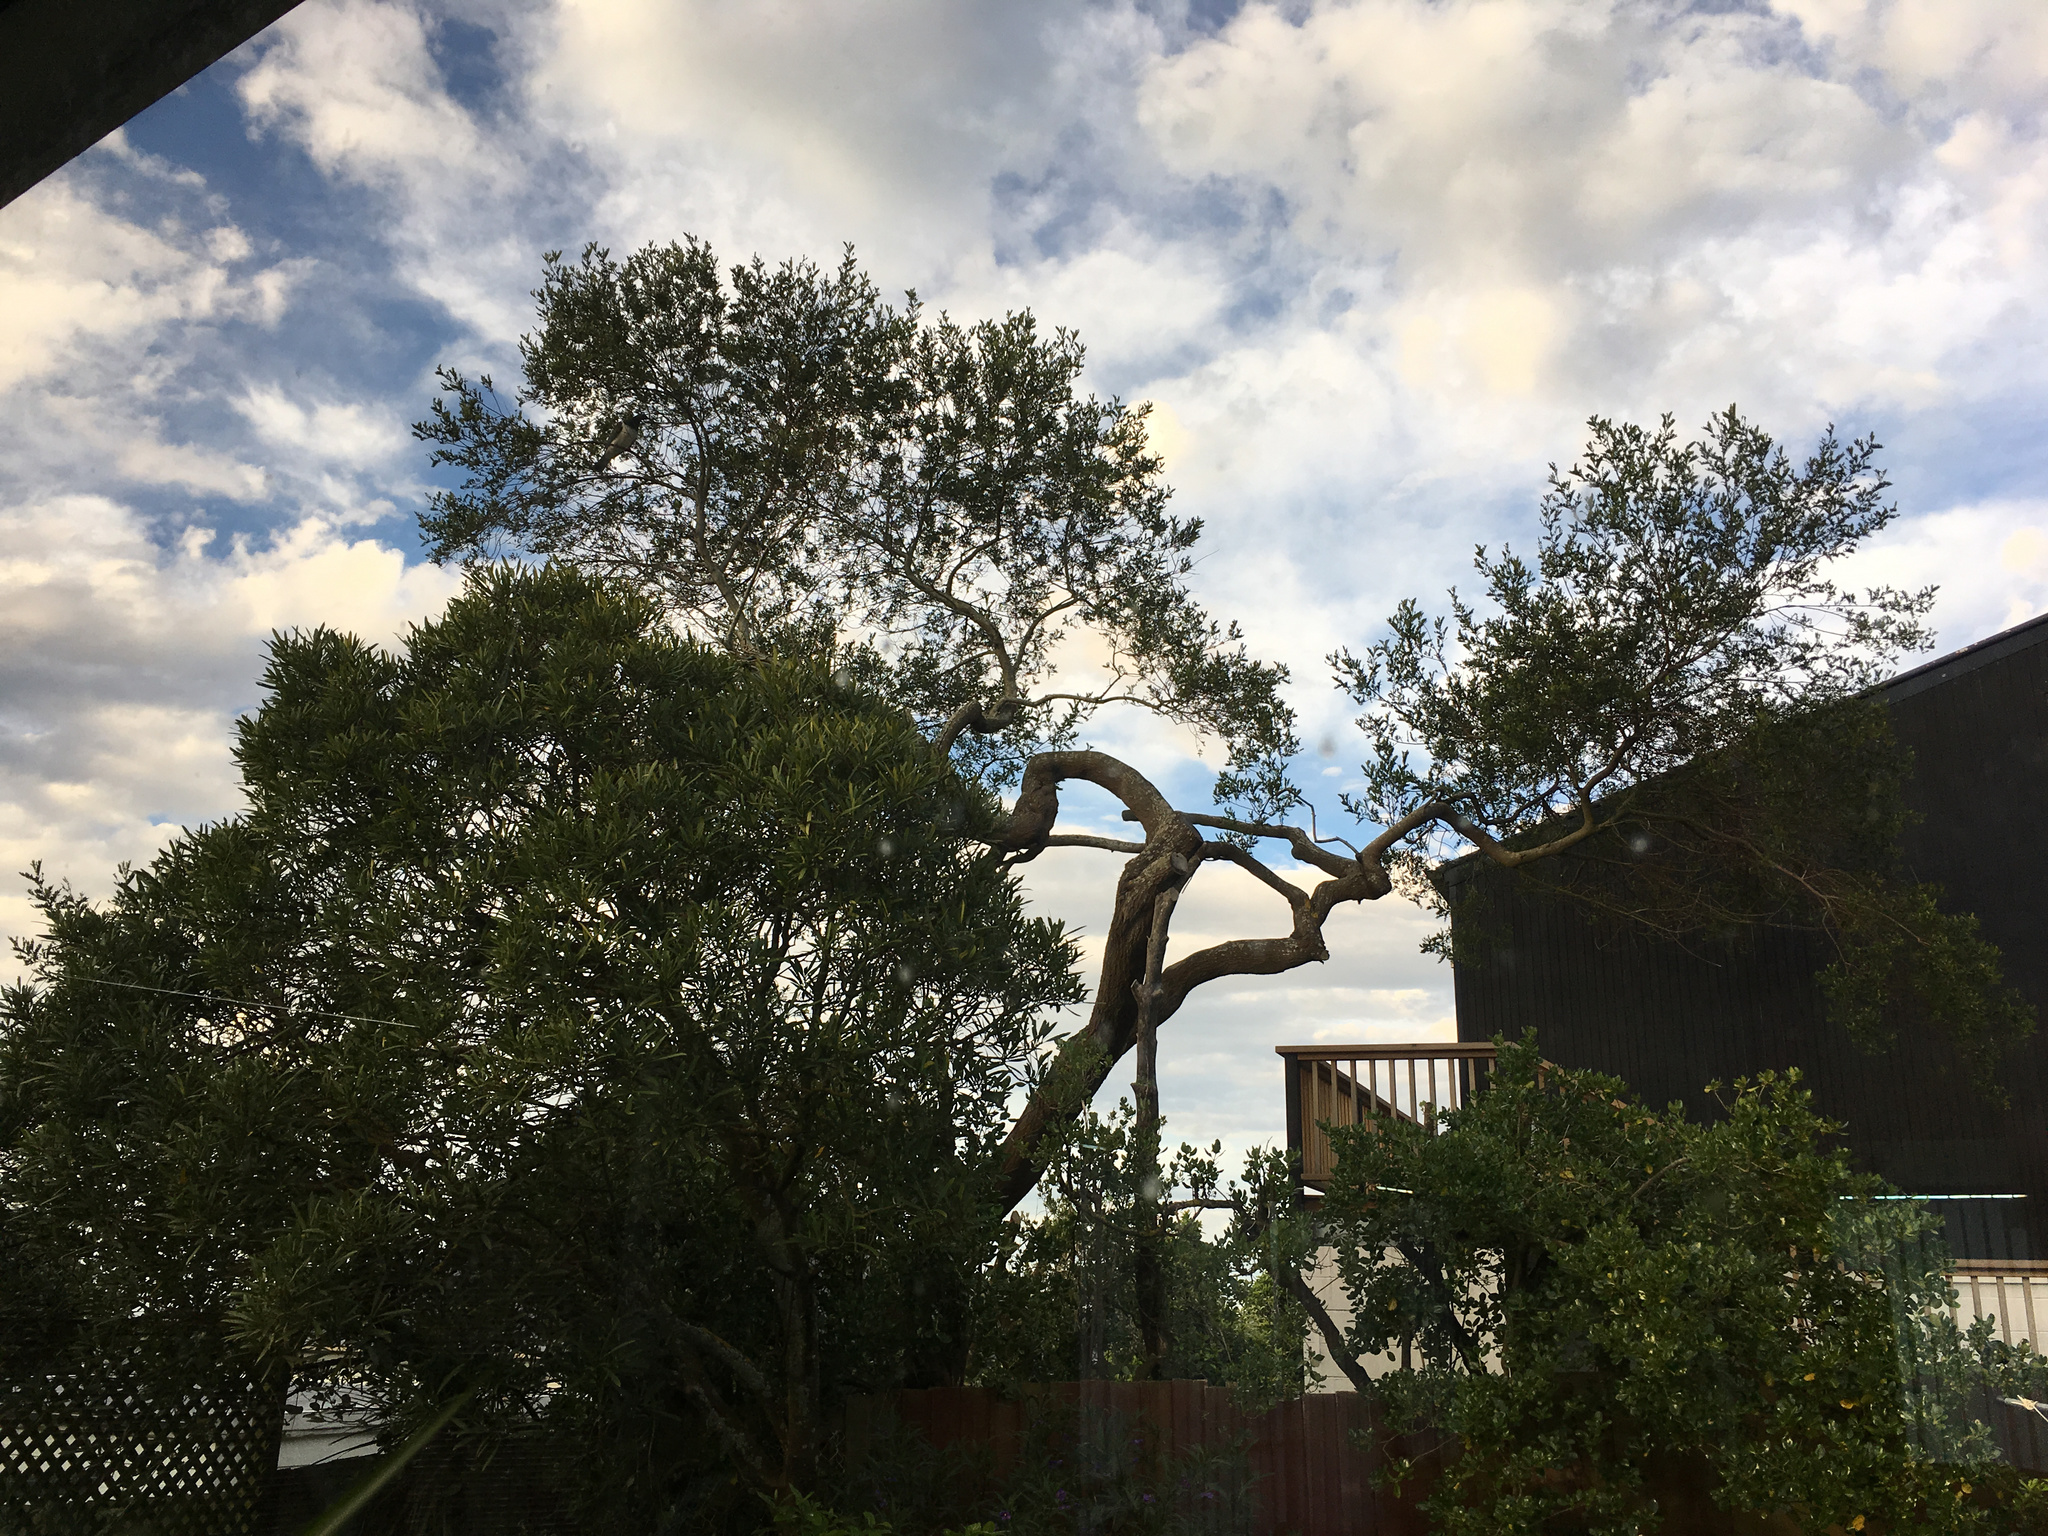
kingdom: Animalia
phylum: Chordata
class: Aves
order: Columbiformes
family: Columbidae
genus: Hemiphaga
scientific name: Hemiphaga novaeseelandiae
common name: New zealand pigeon
